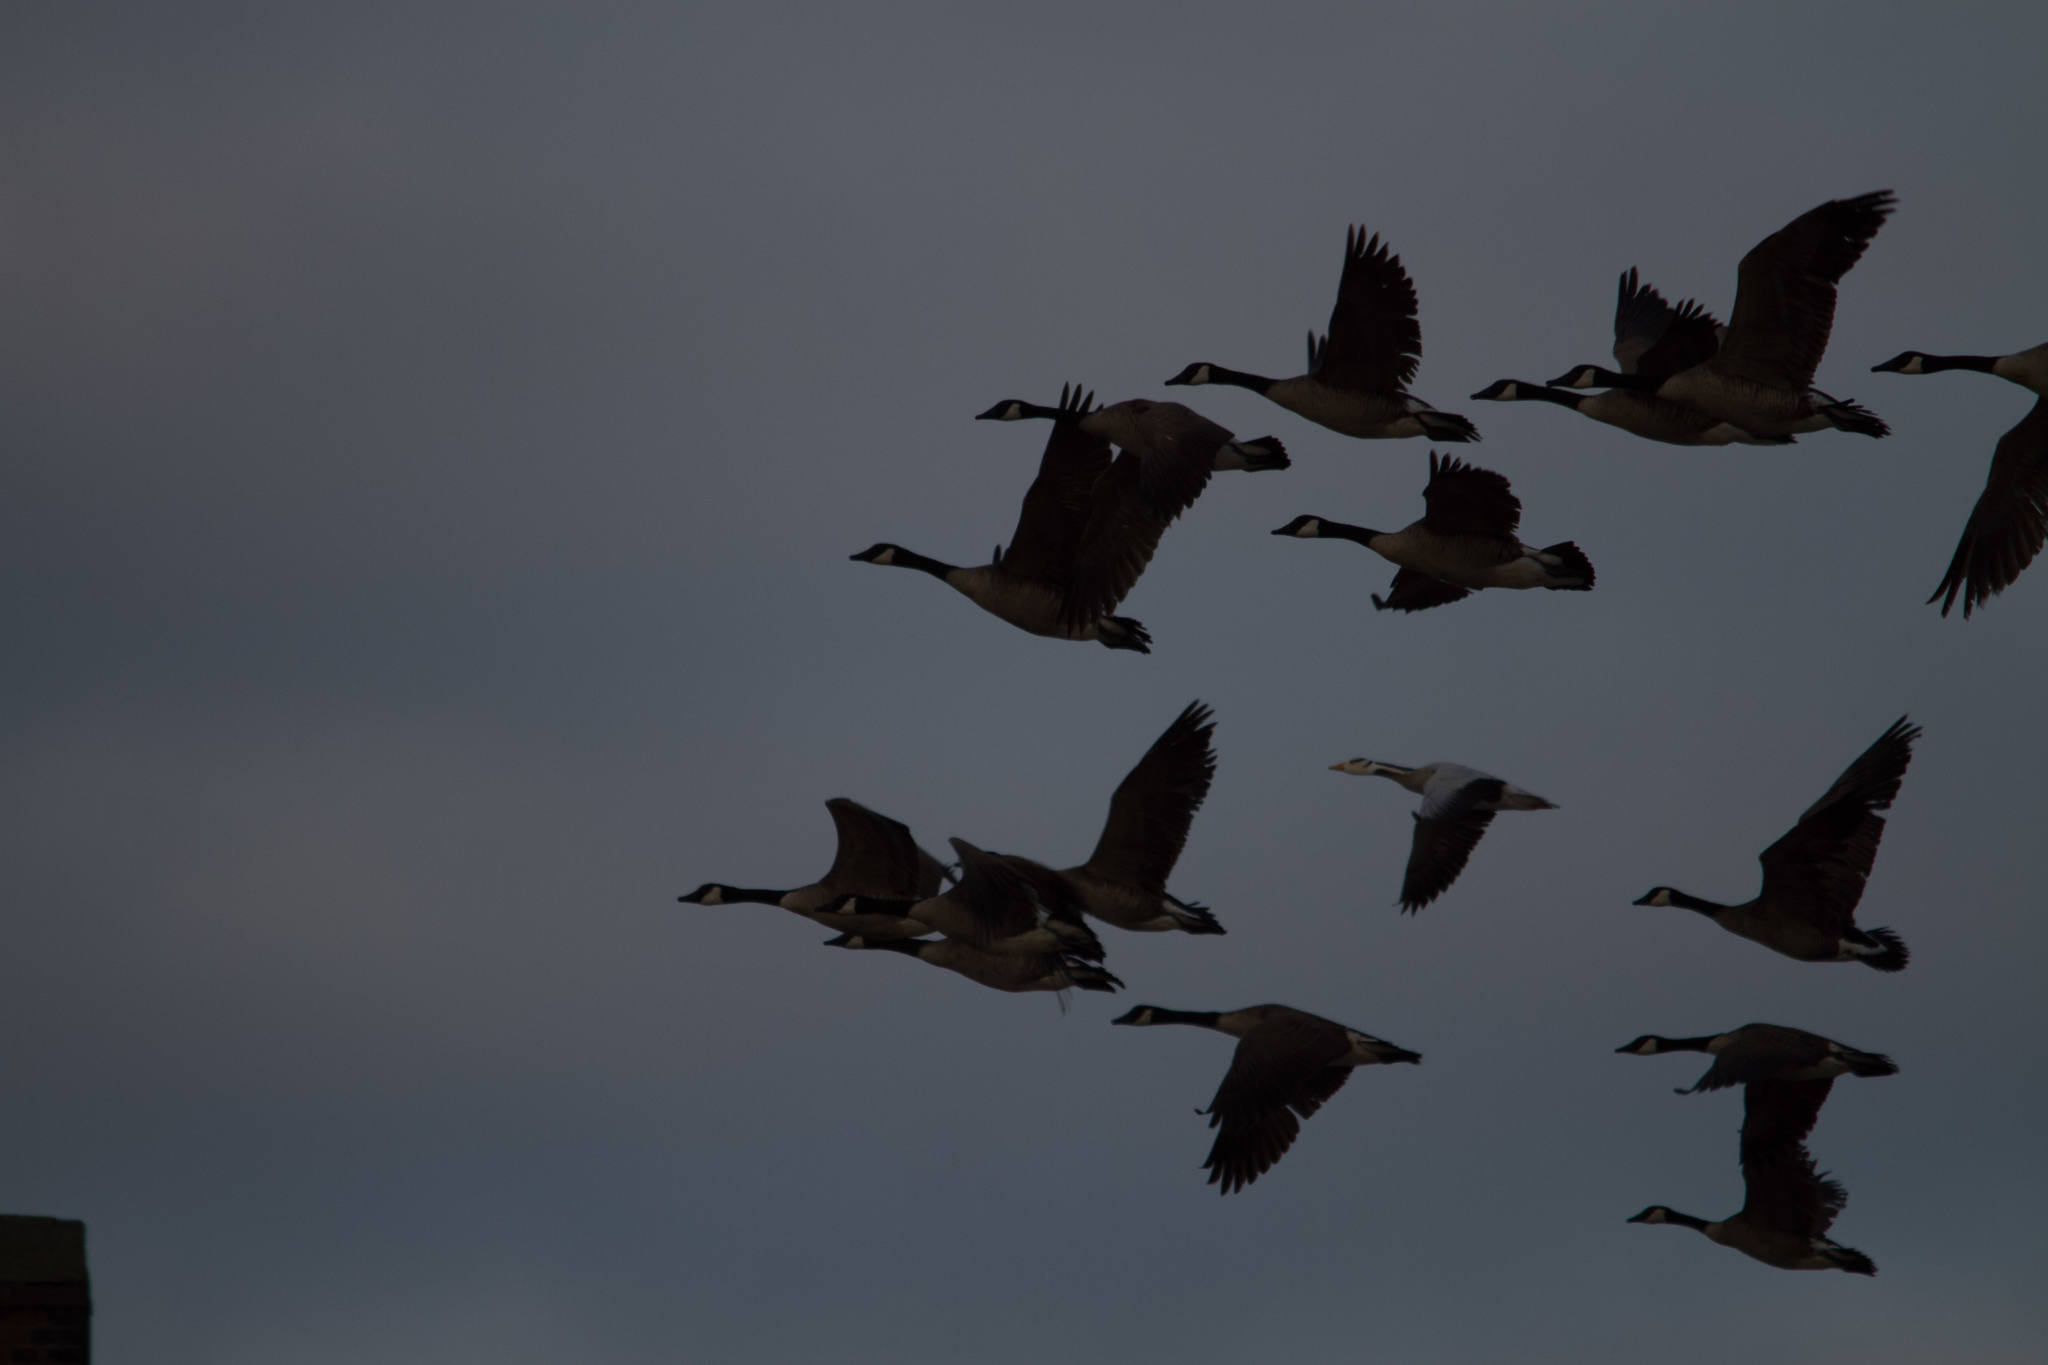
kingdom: Animalia
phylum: Chordata
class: Aves
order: Anseriformes
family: Anatidae
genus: Anser
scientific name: Anser indicus
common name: Bar-headed goose
